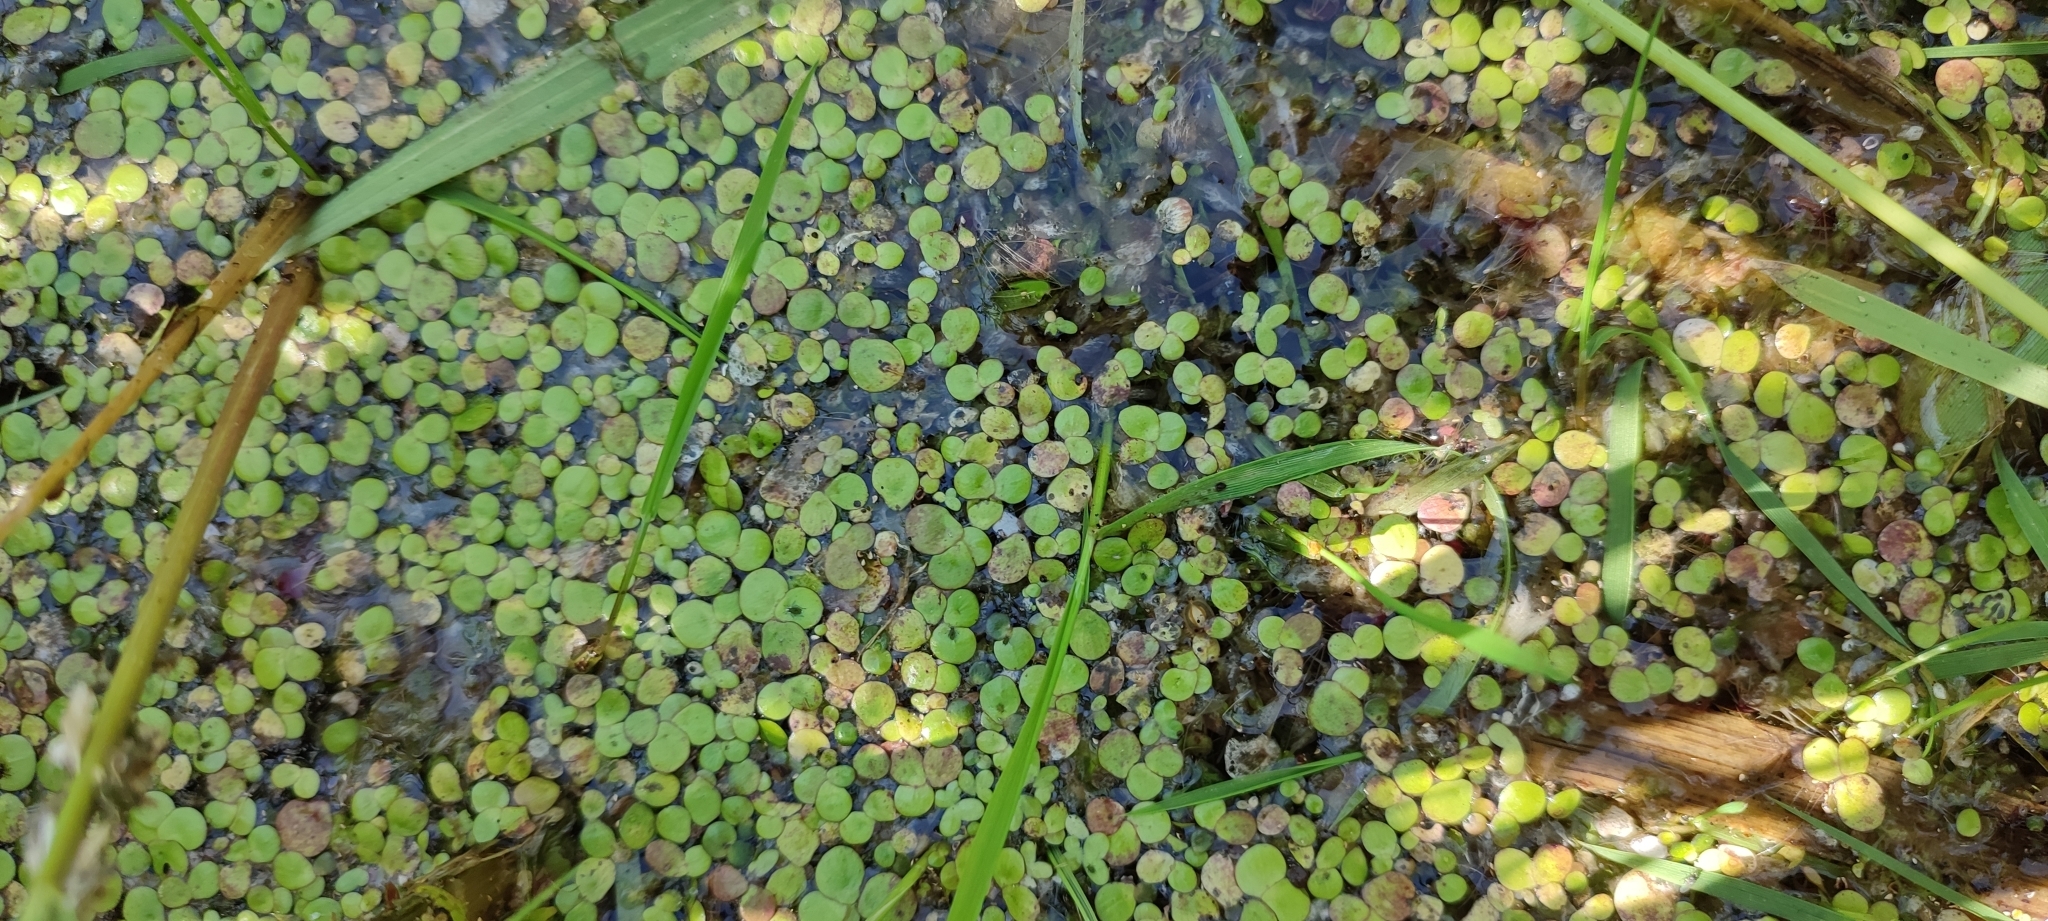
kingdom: Plantae
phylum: Tracheophyta
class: Liliopsida
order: Alismatales
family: Araceae
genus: Spirodela
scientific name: Spirodela polyrhiza
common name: Great duckweed
